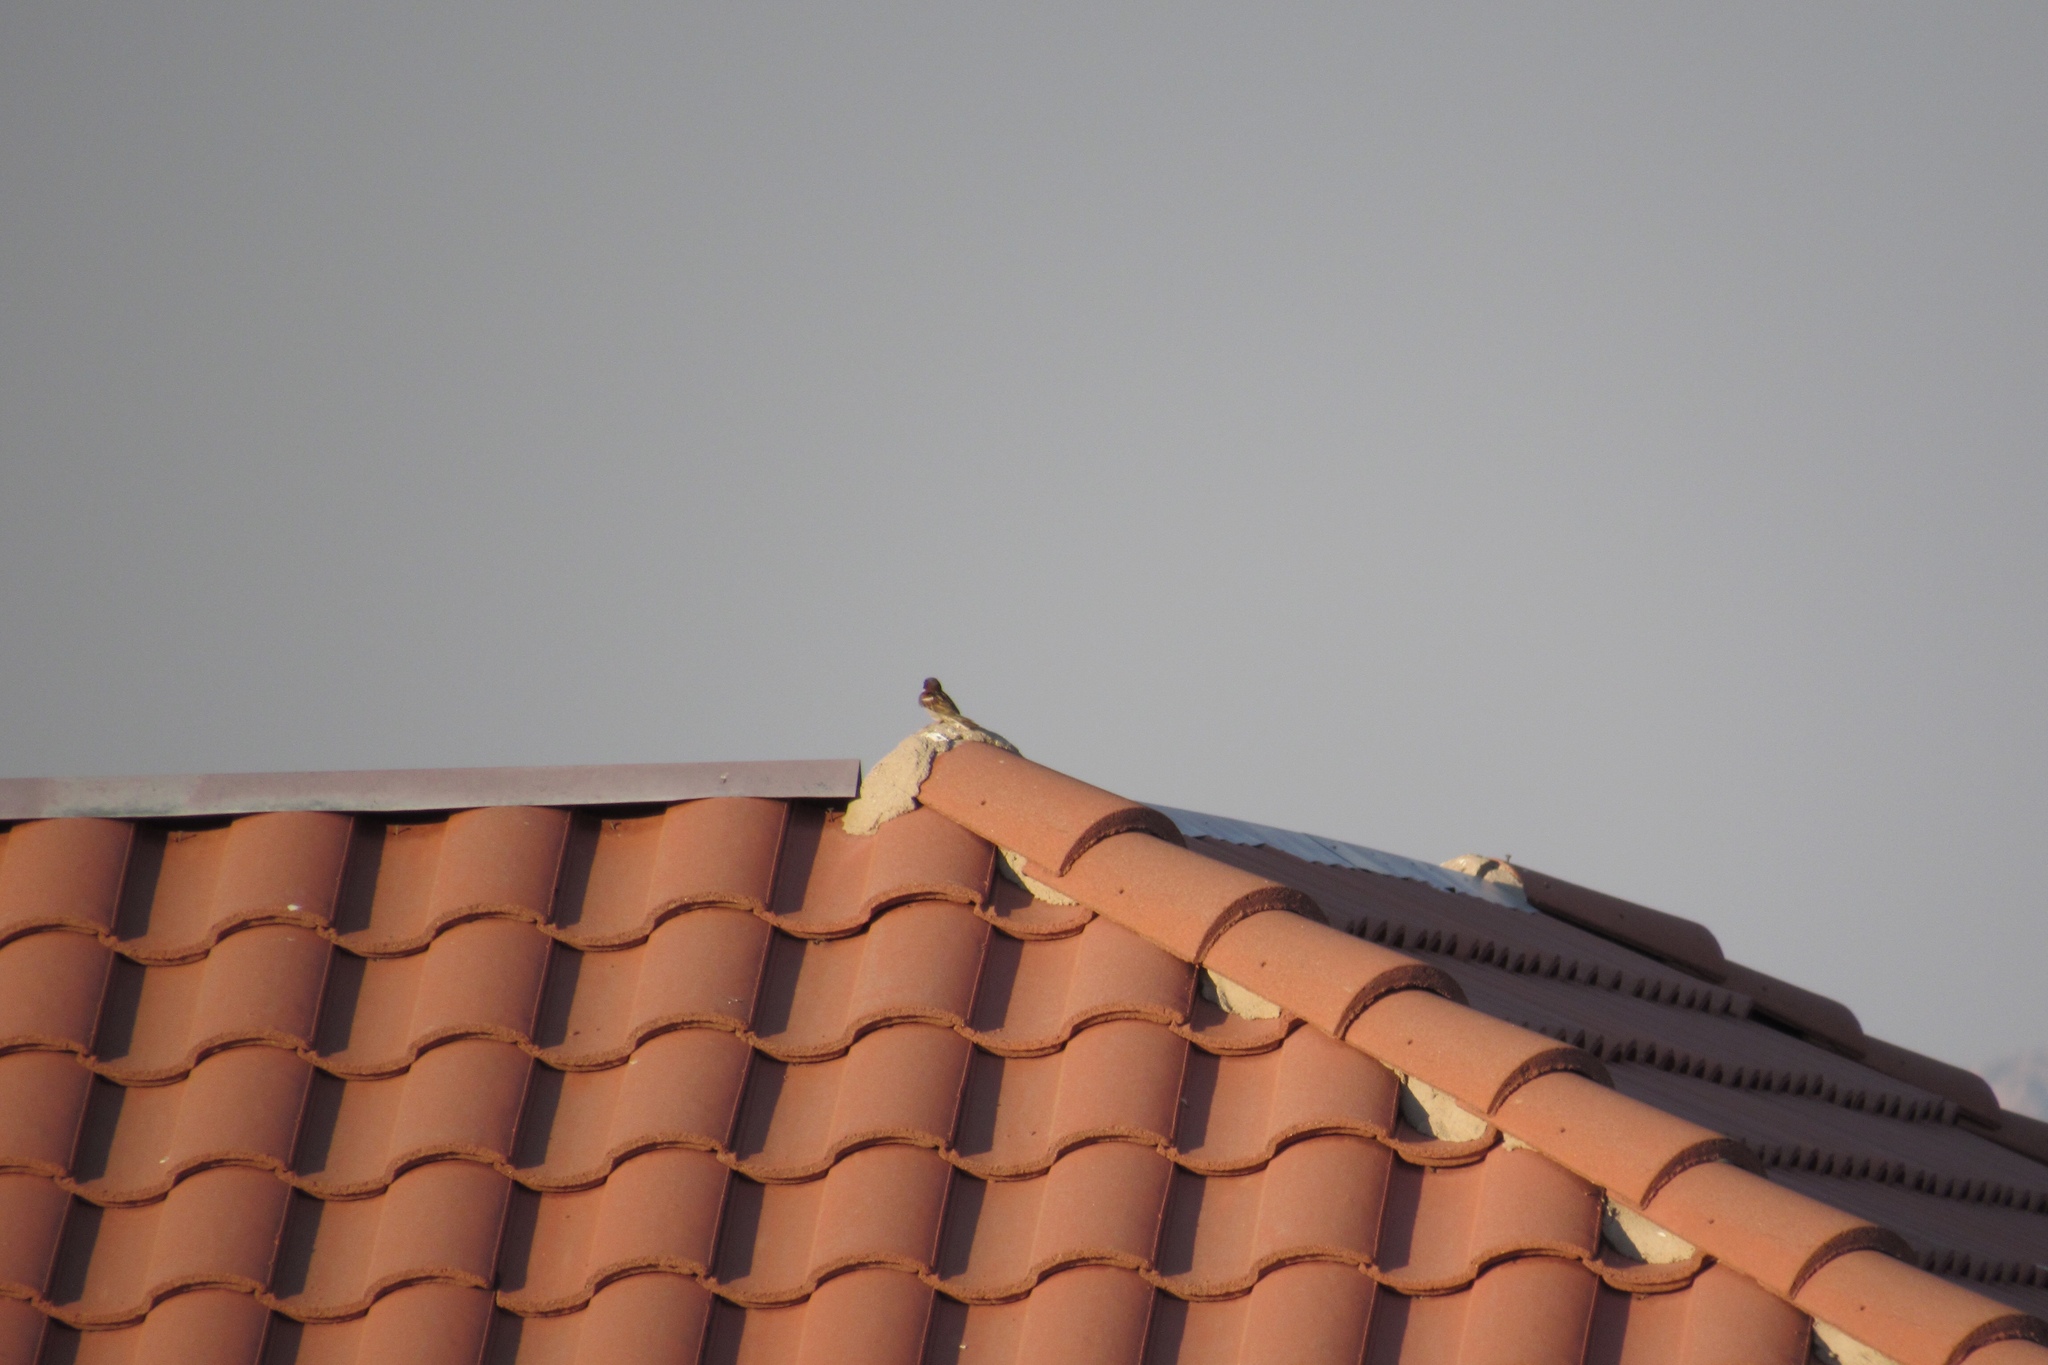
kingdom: Animalia
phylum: Chordata
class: Aves
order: Passeriformes
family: Passeridae
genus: Passer
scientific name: Passer domesticus
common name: House sparrow
